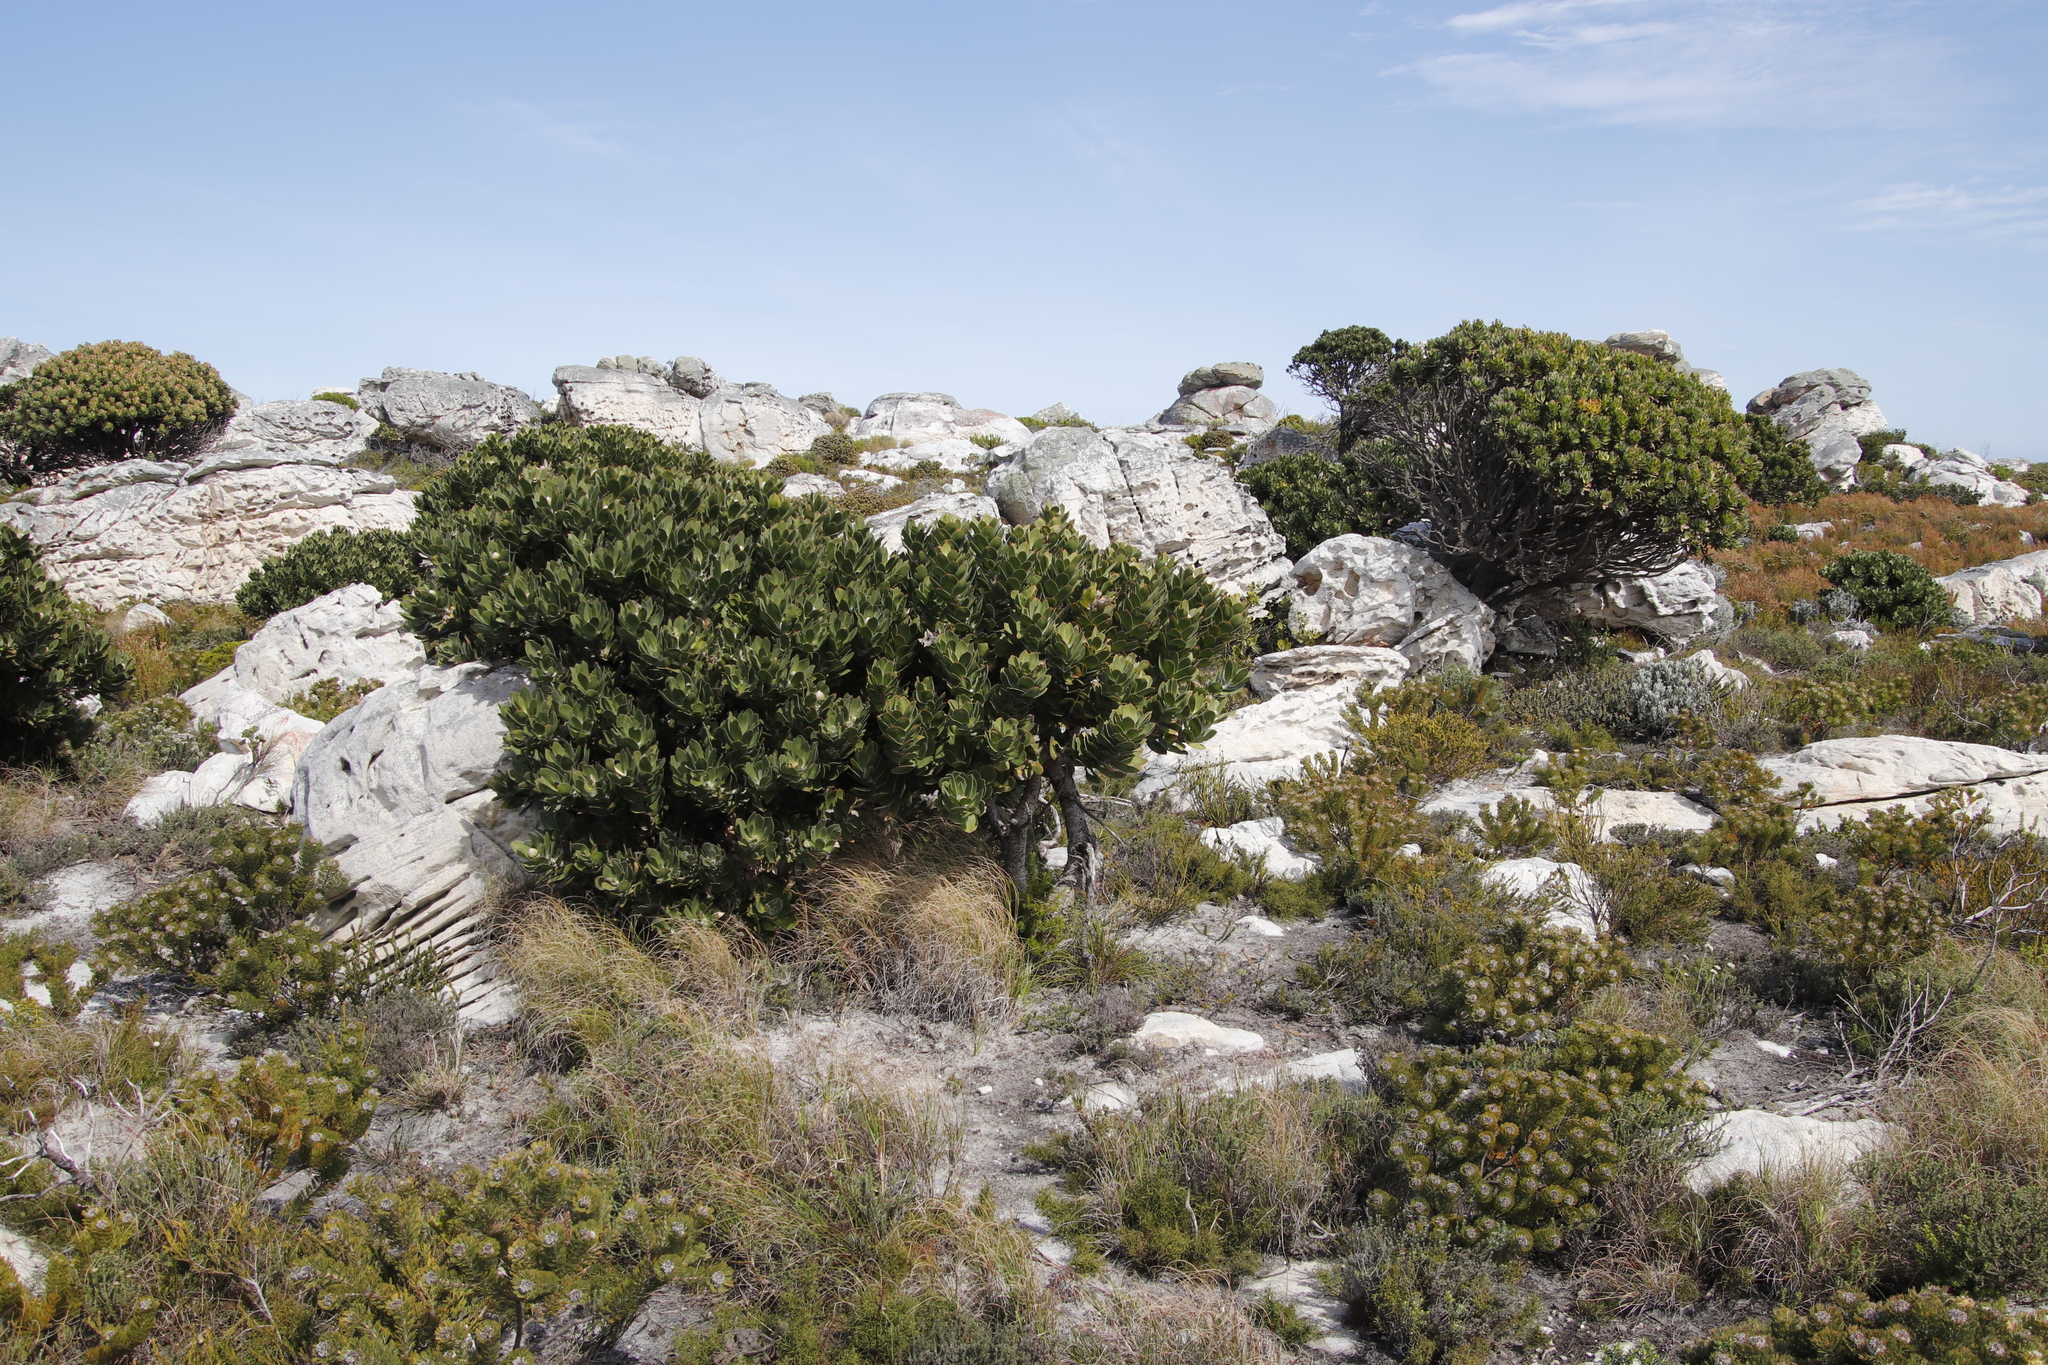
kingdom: Plantae
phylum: Tracheophyta
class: Magnoliopsida
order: Proteales
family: Proteaceae
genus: Leucospermum
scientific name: Leucospermum conocarpodendron
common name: Tree pincushion
